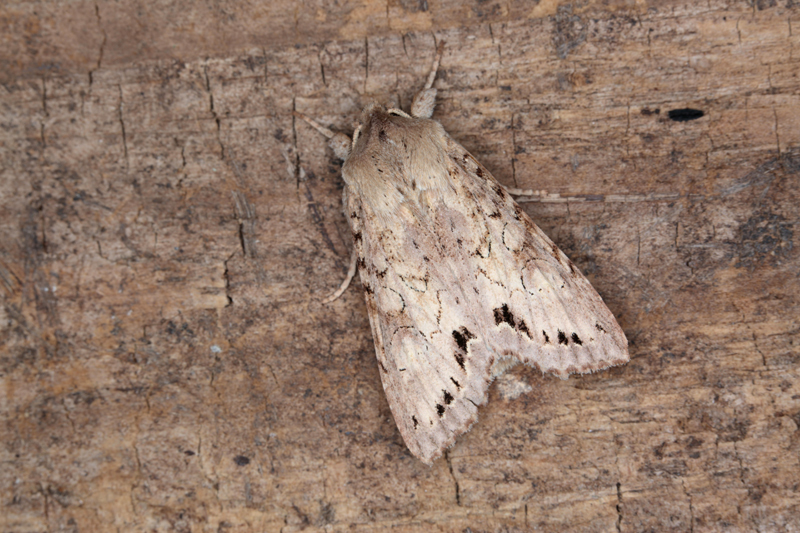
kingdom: Animalia
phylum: Arthropoda
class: Insecta
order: Lepidoptera
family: Noctuidae
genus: Ichneutica
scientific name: Ichneutica thalassarche
